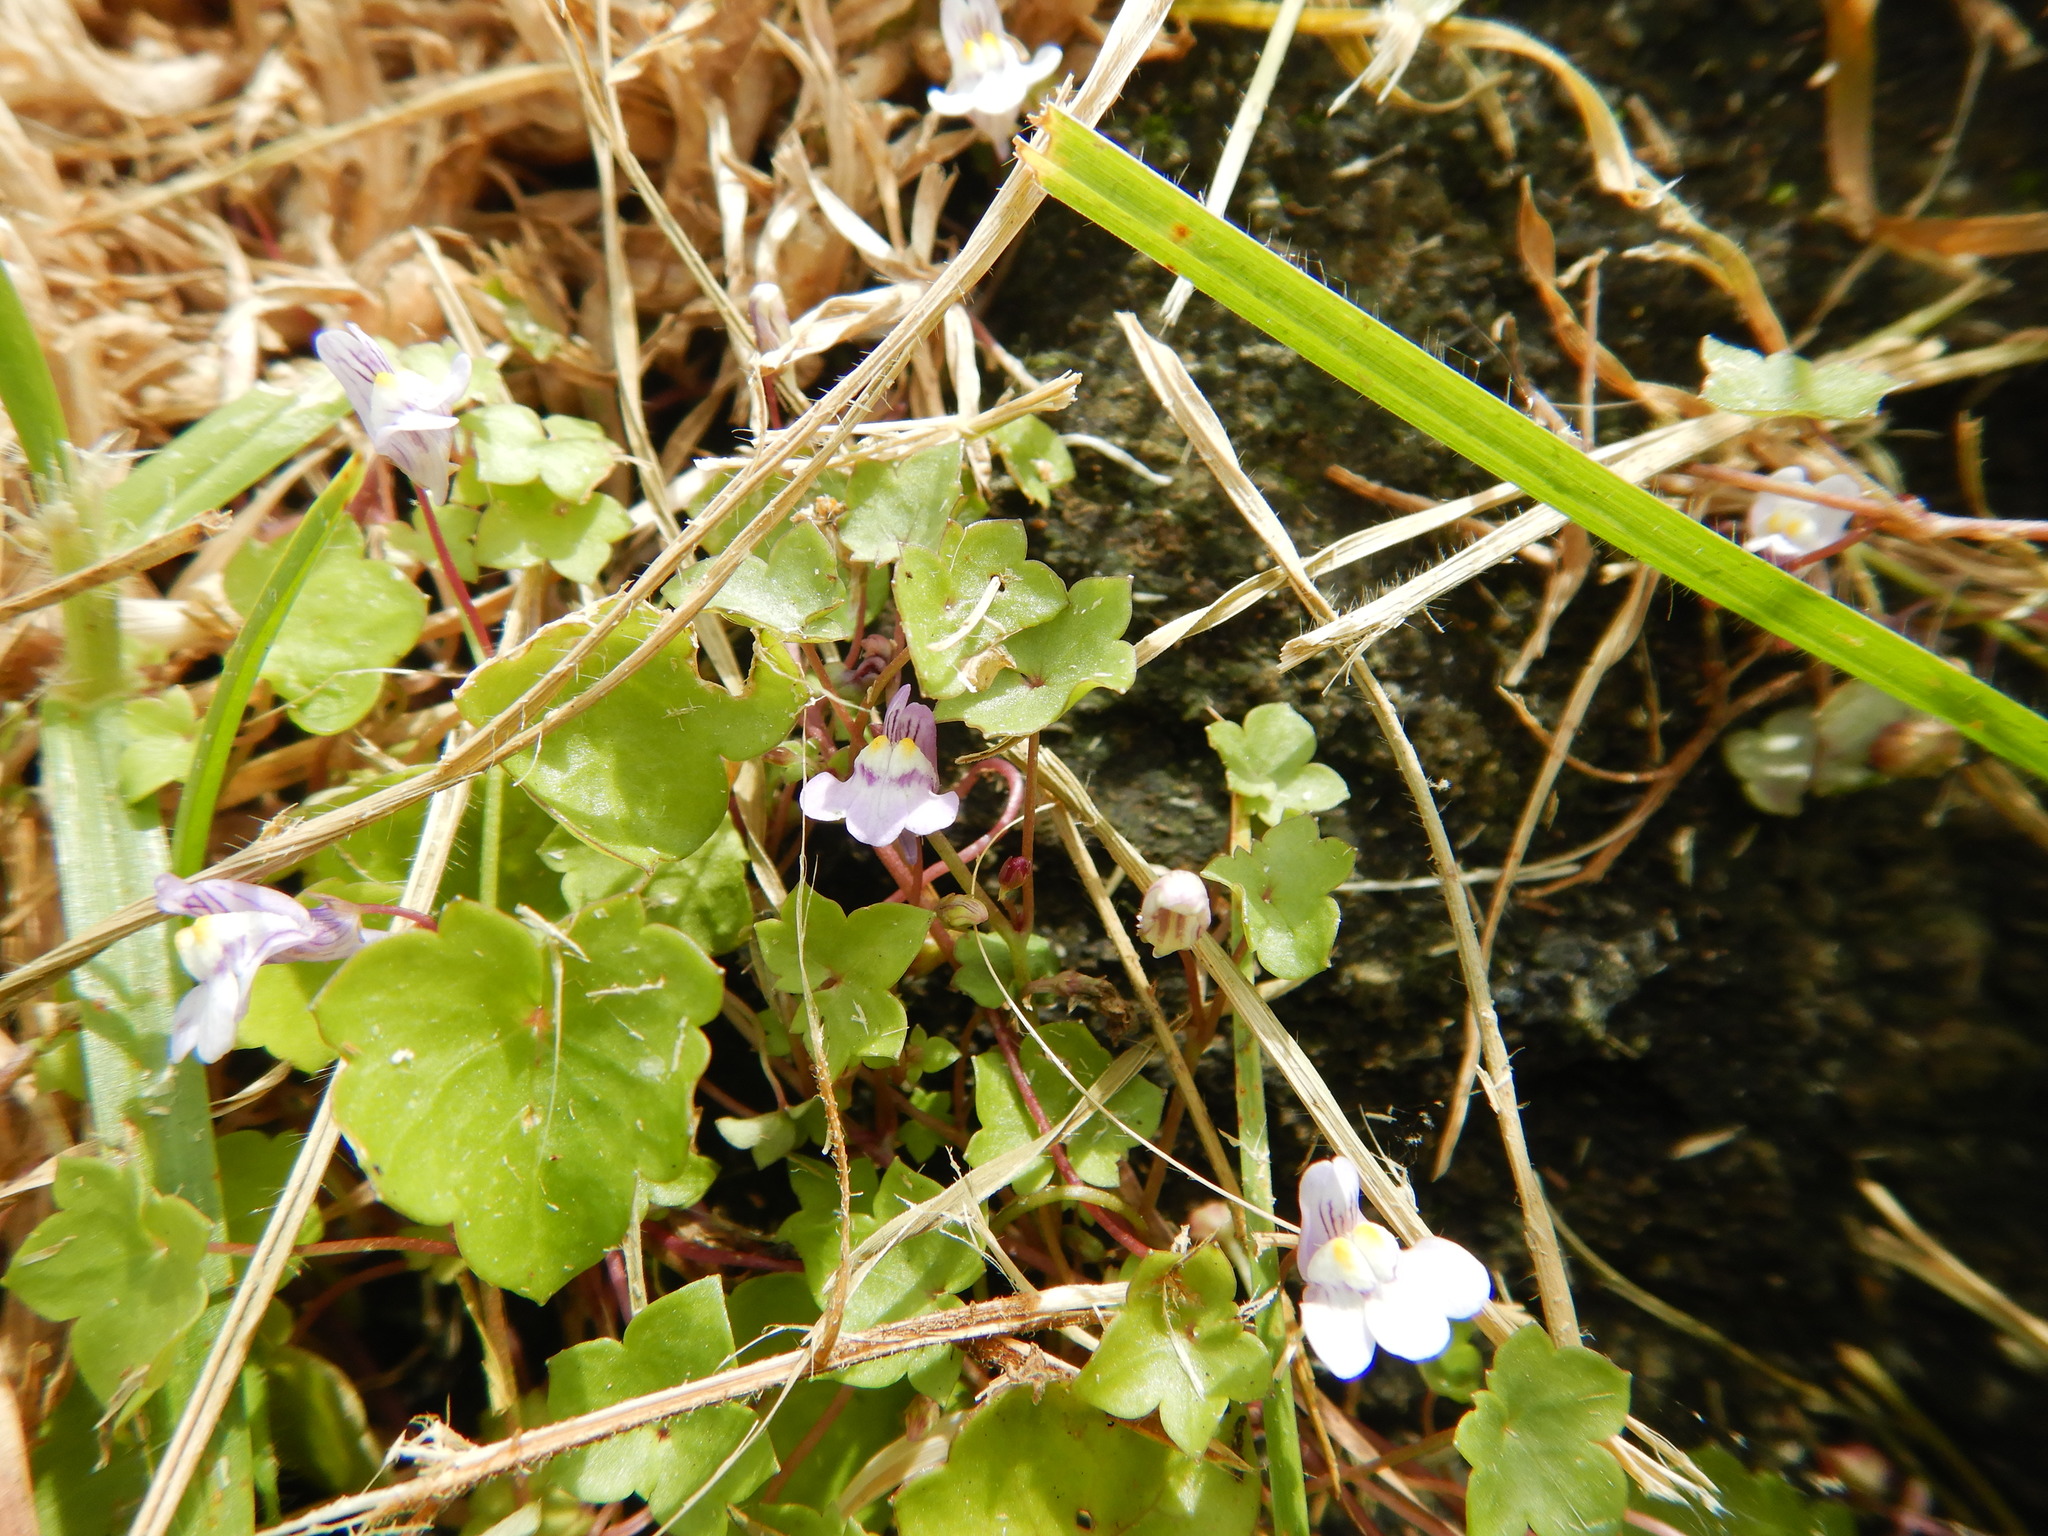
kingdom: Plantae
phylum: Tracheophyta
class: Magnoliopsida
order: Lamiales
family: Plantaginaceae
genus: Cymbalaria
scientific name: Cymbalaria muralis
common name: Ivy-leaved toadflax
